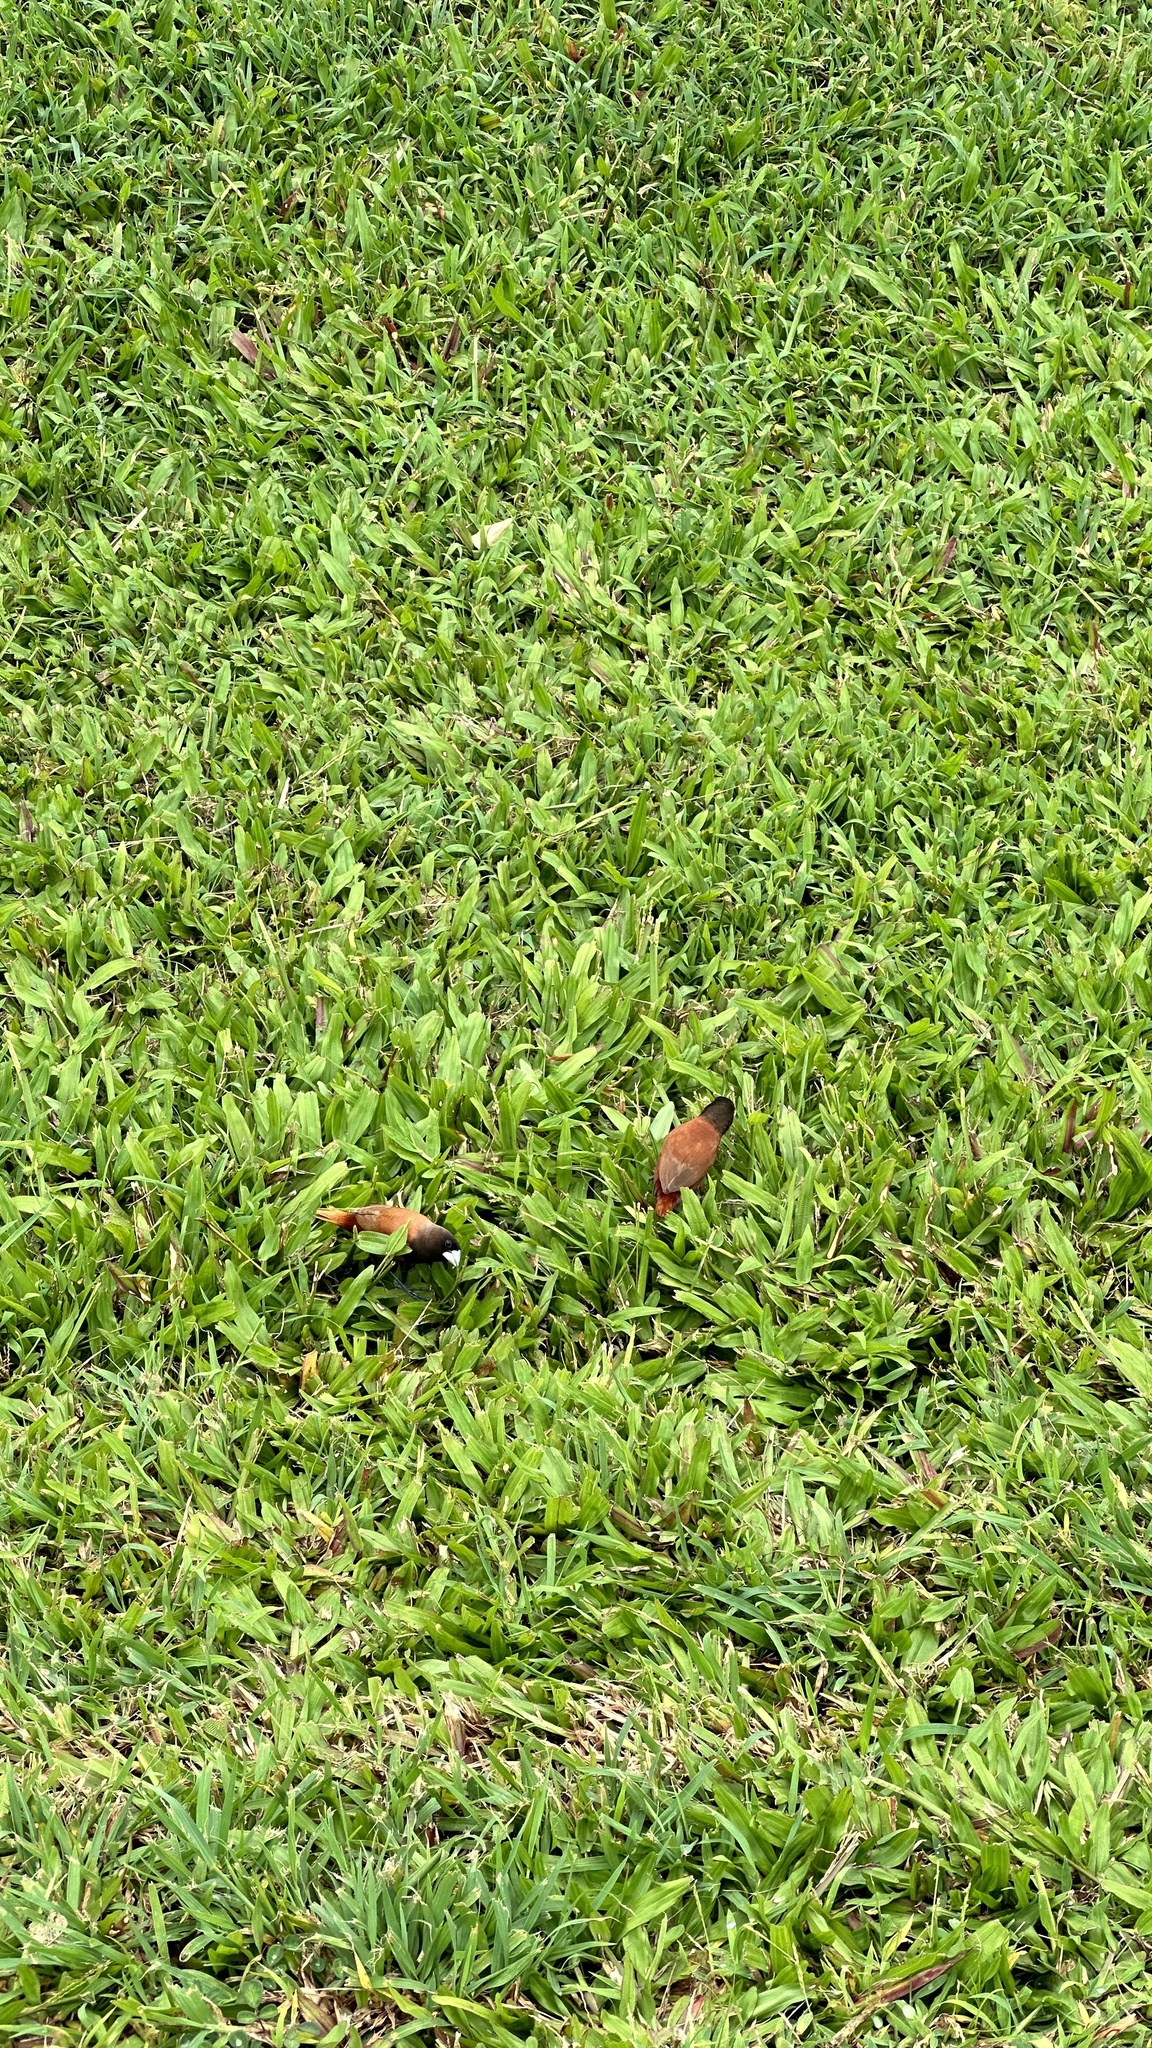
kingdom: Animalia
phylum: Chordata
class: Aves
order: Passeriformes
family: Estrildidae
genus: Lonchura
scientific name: Lonchura atricapilla
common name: Chestnut munia
